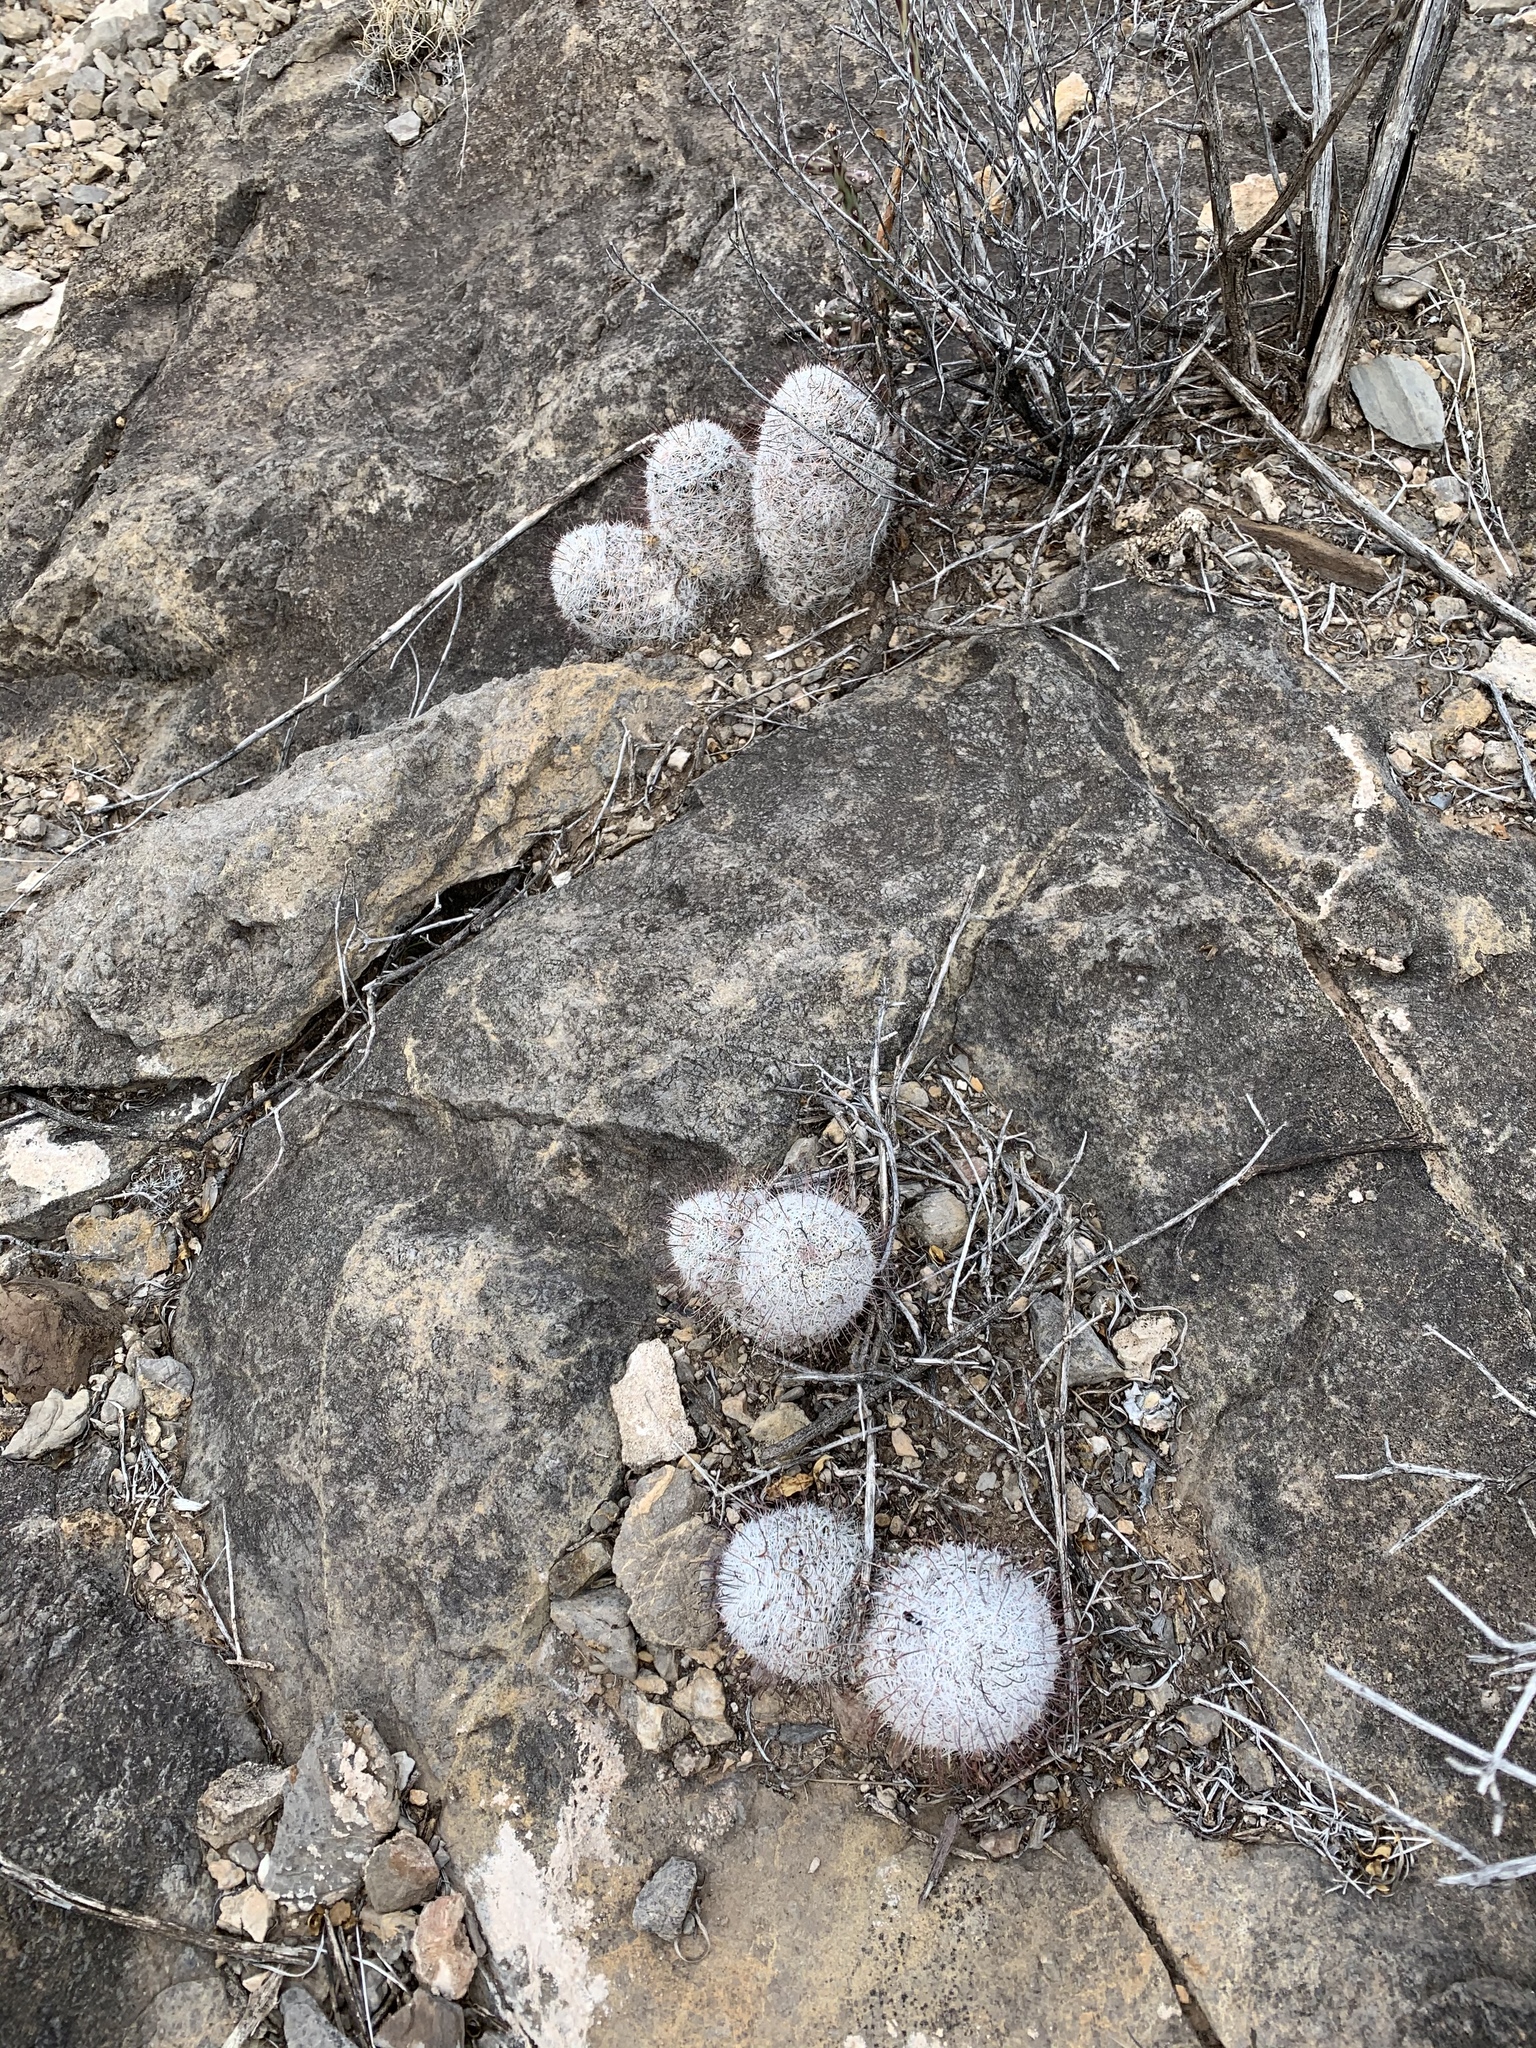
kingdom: Plantae
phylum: Tracheophyta
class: Magnoliopsida
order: Caryophyllales
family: Cactaceae
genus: Cochemiea
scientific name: Cochemiea grahamii
